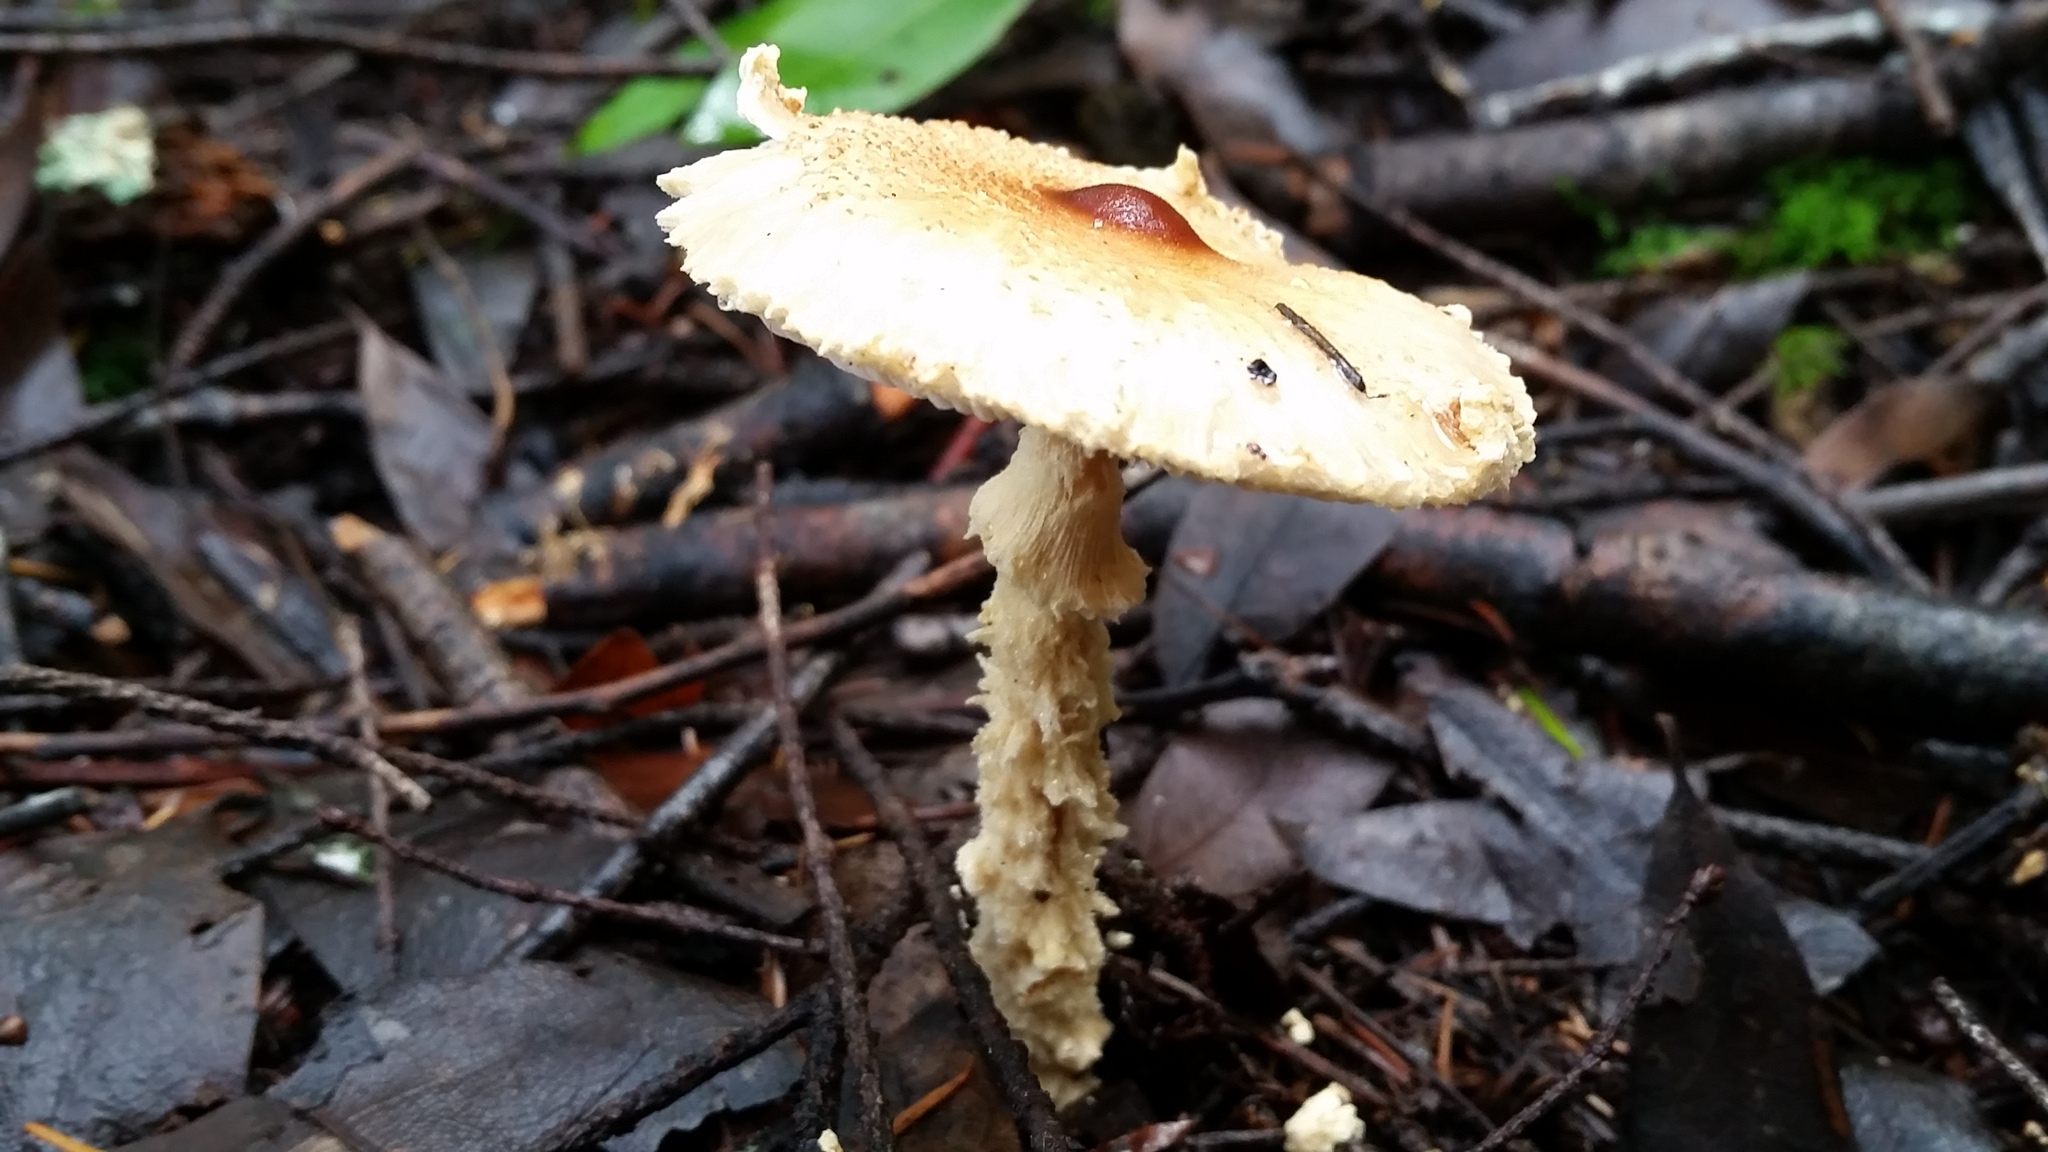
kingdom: Fungi
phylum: Basidiomycota
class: Agaricomycetes
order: Agaricales
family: Agaricaceae
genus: Lepiota
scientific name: Lepiota magnispora
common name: Yellowfoot dapperling
